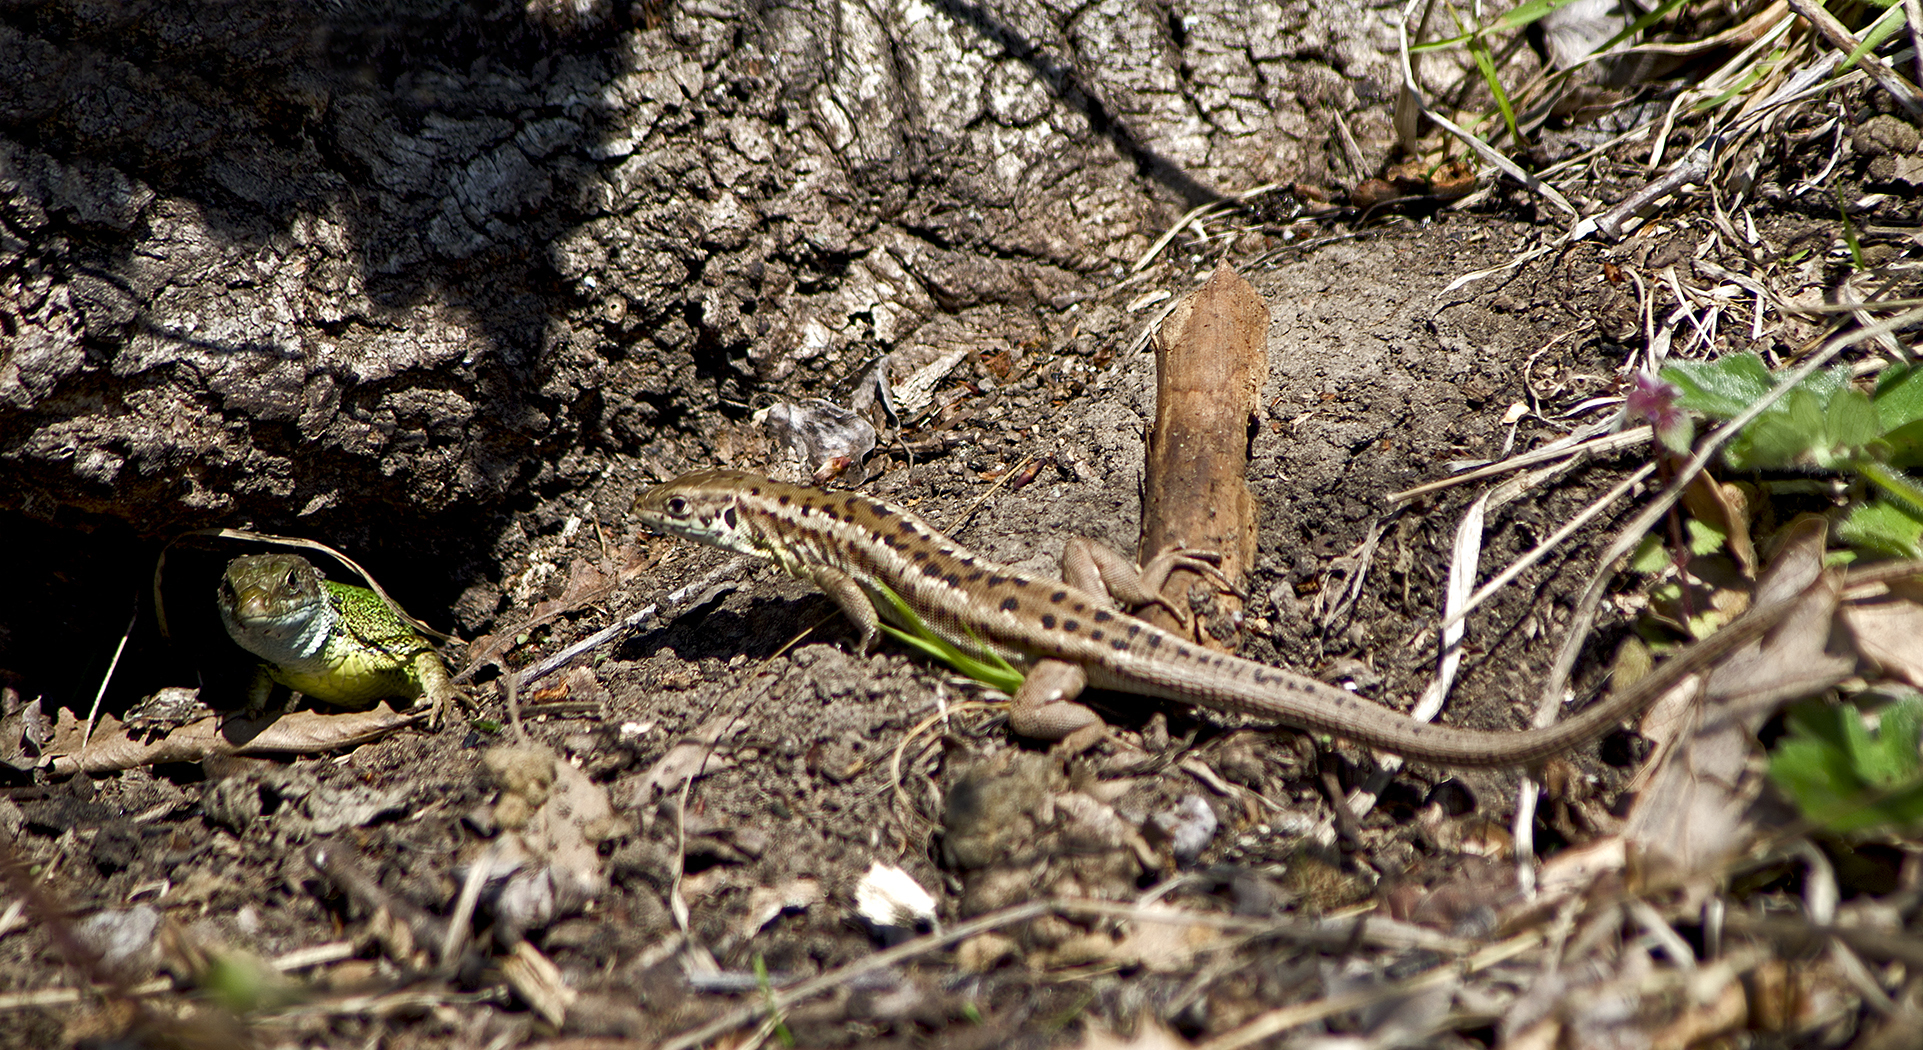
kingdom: Animalia
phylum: Chordata
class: Squamata
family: Lacertidae
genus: Lacerta
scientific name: Lacerta viridis
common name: European green lizard
